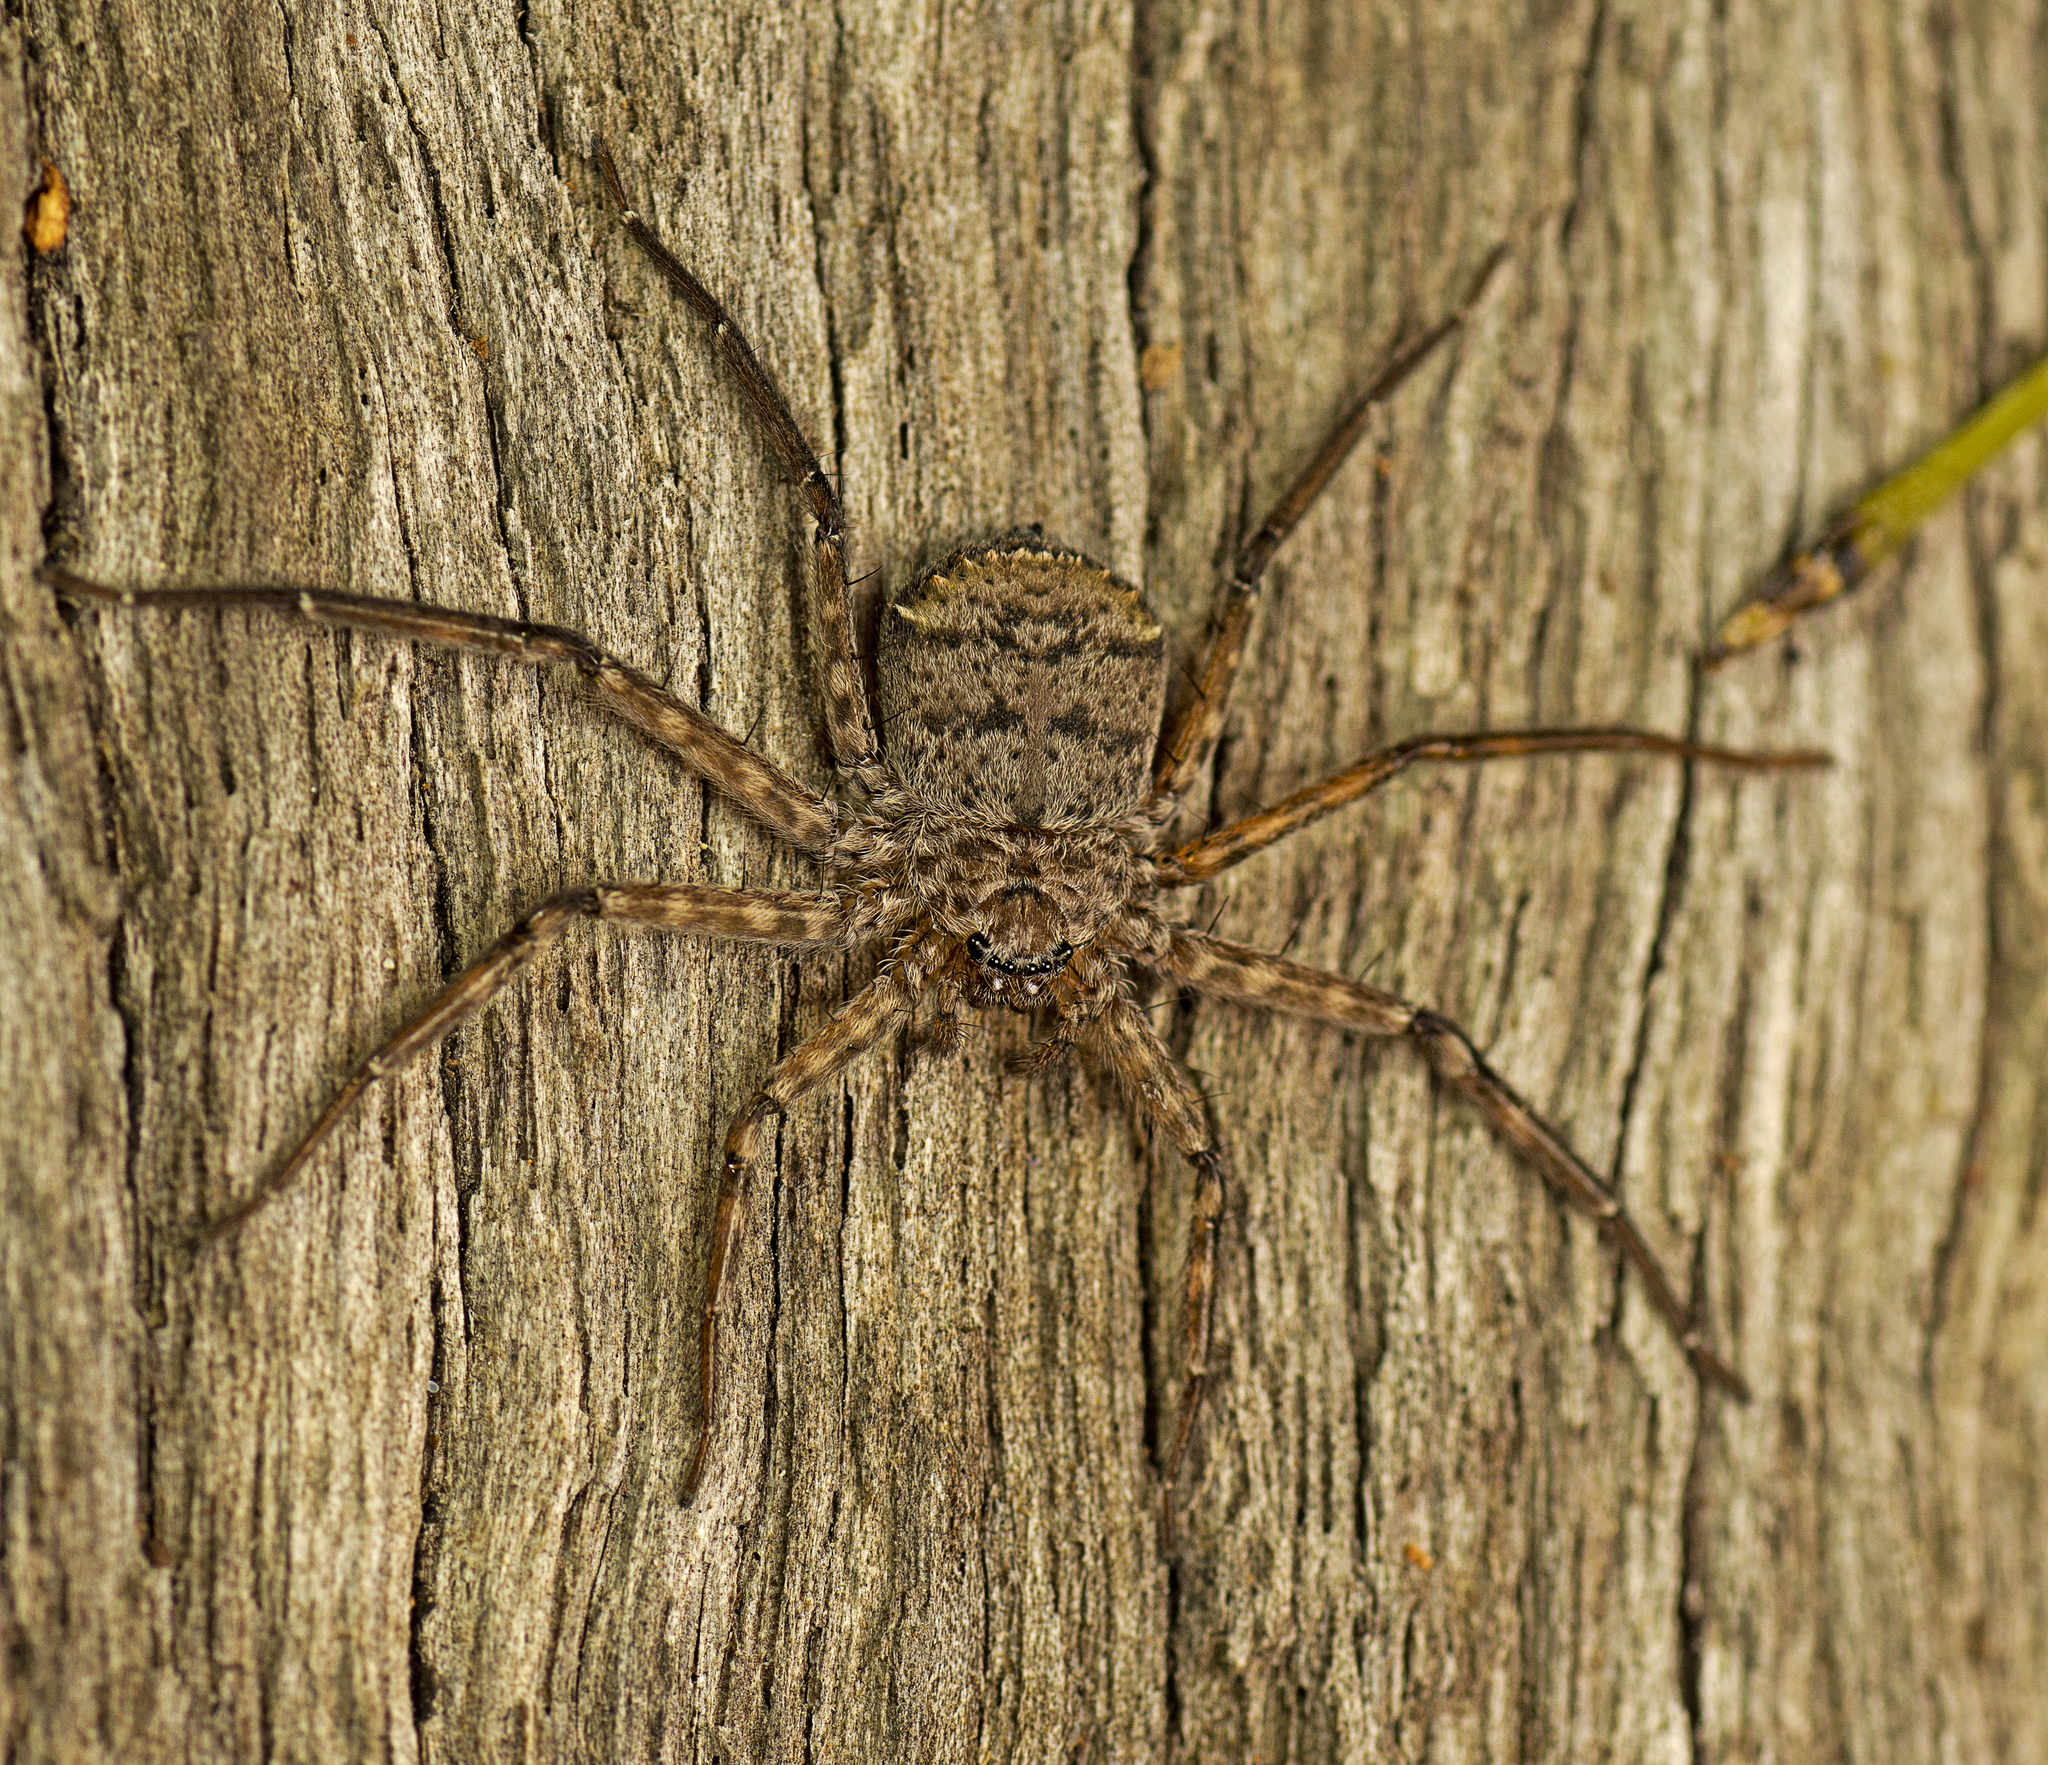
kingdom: Animalia
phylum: Arthropoda
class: Arachnida
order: Araneae
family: Selenopidae
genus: Karaops
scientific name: Karaops raveni
